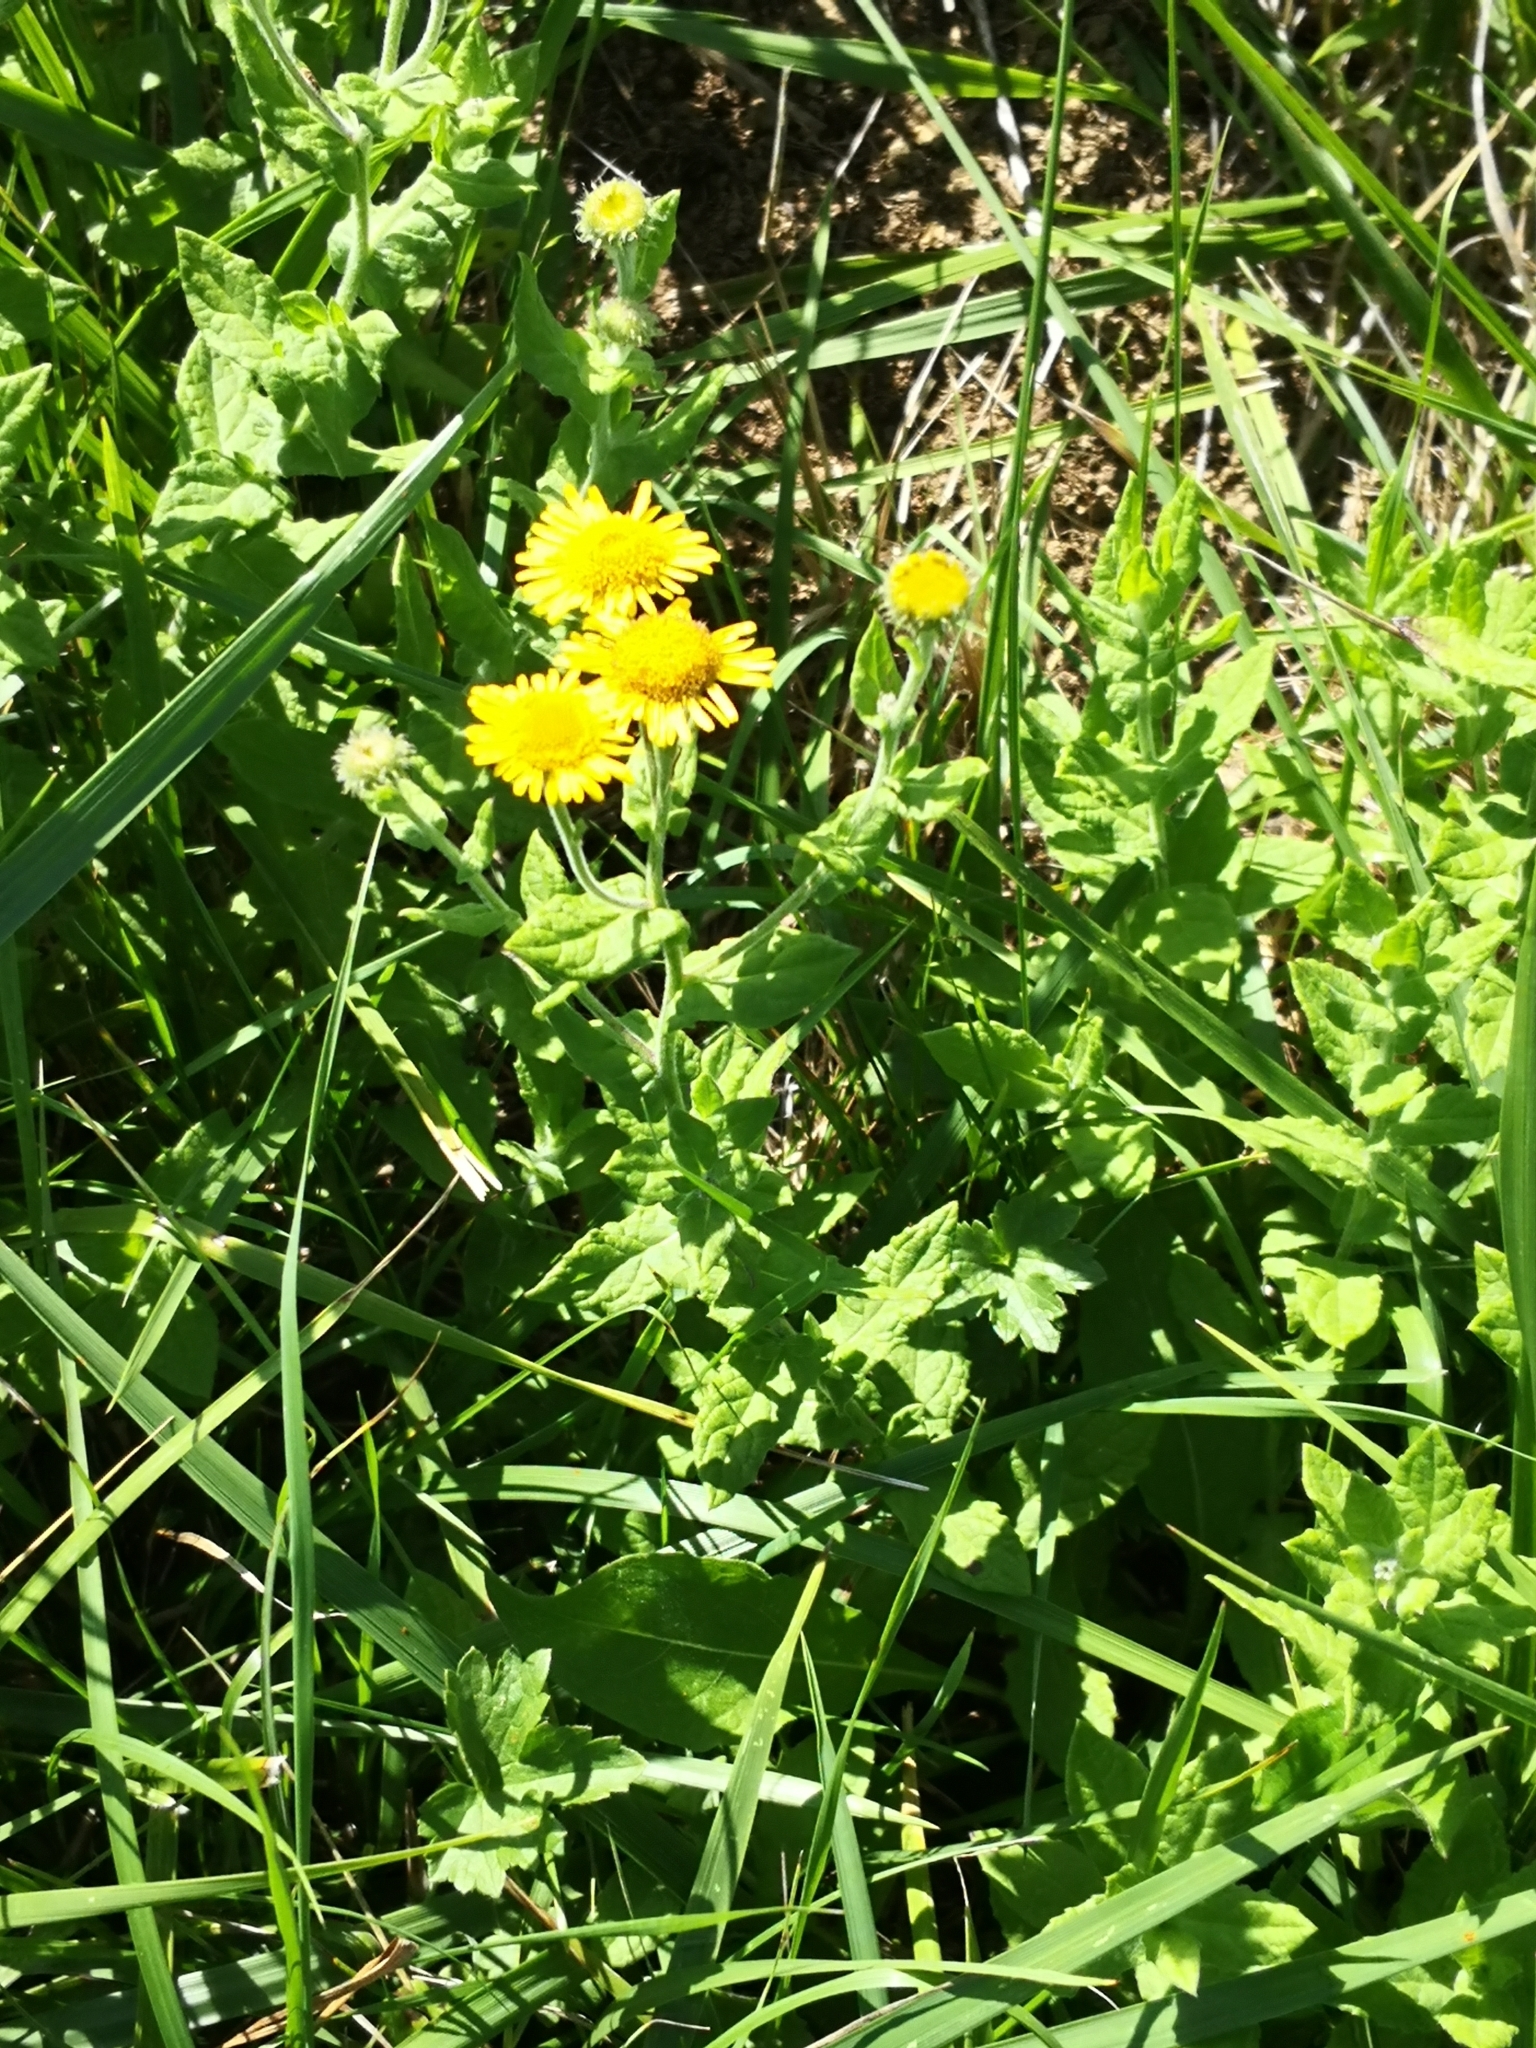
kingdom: Plantae
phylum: Tracheophyta
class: Magnoliopsida
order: Asterales
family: Asteraceae
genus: Pulicaria
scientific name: Pulicaria dysenterica
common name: Common fleabane
